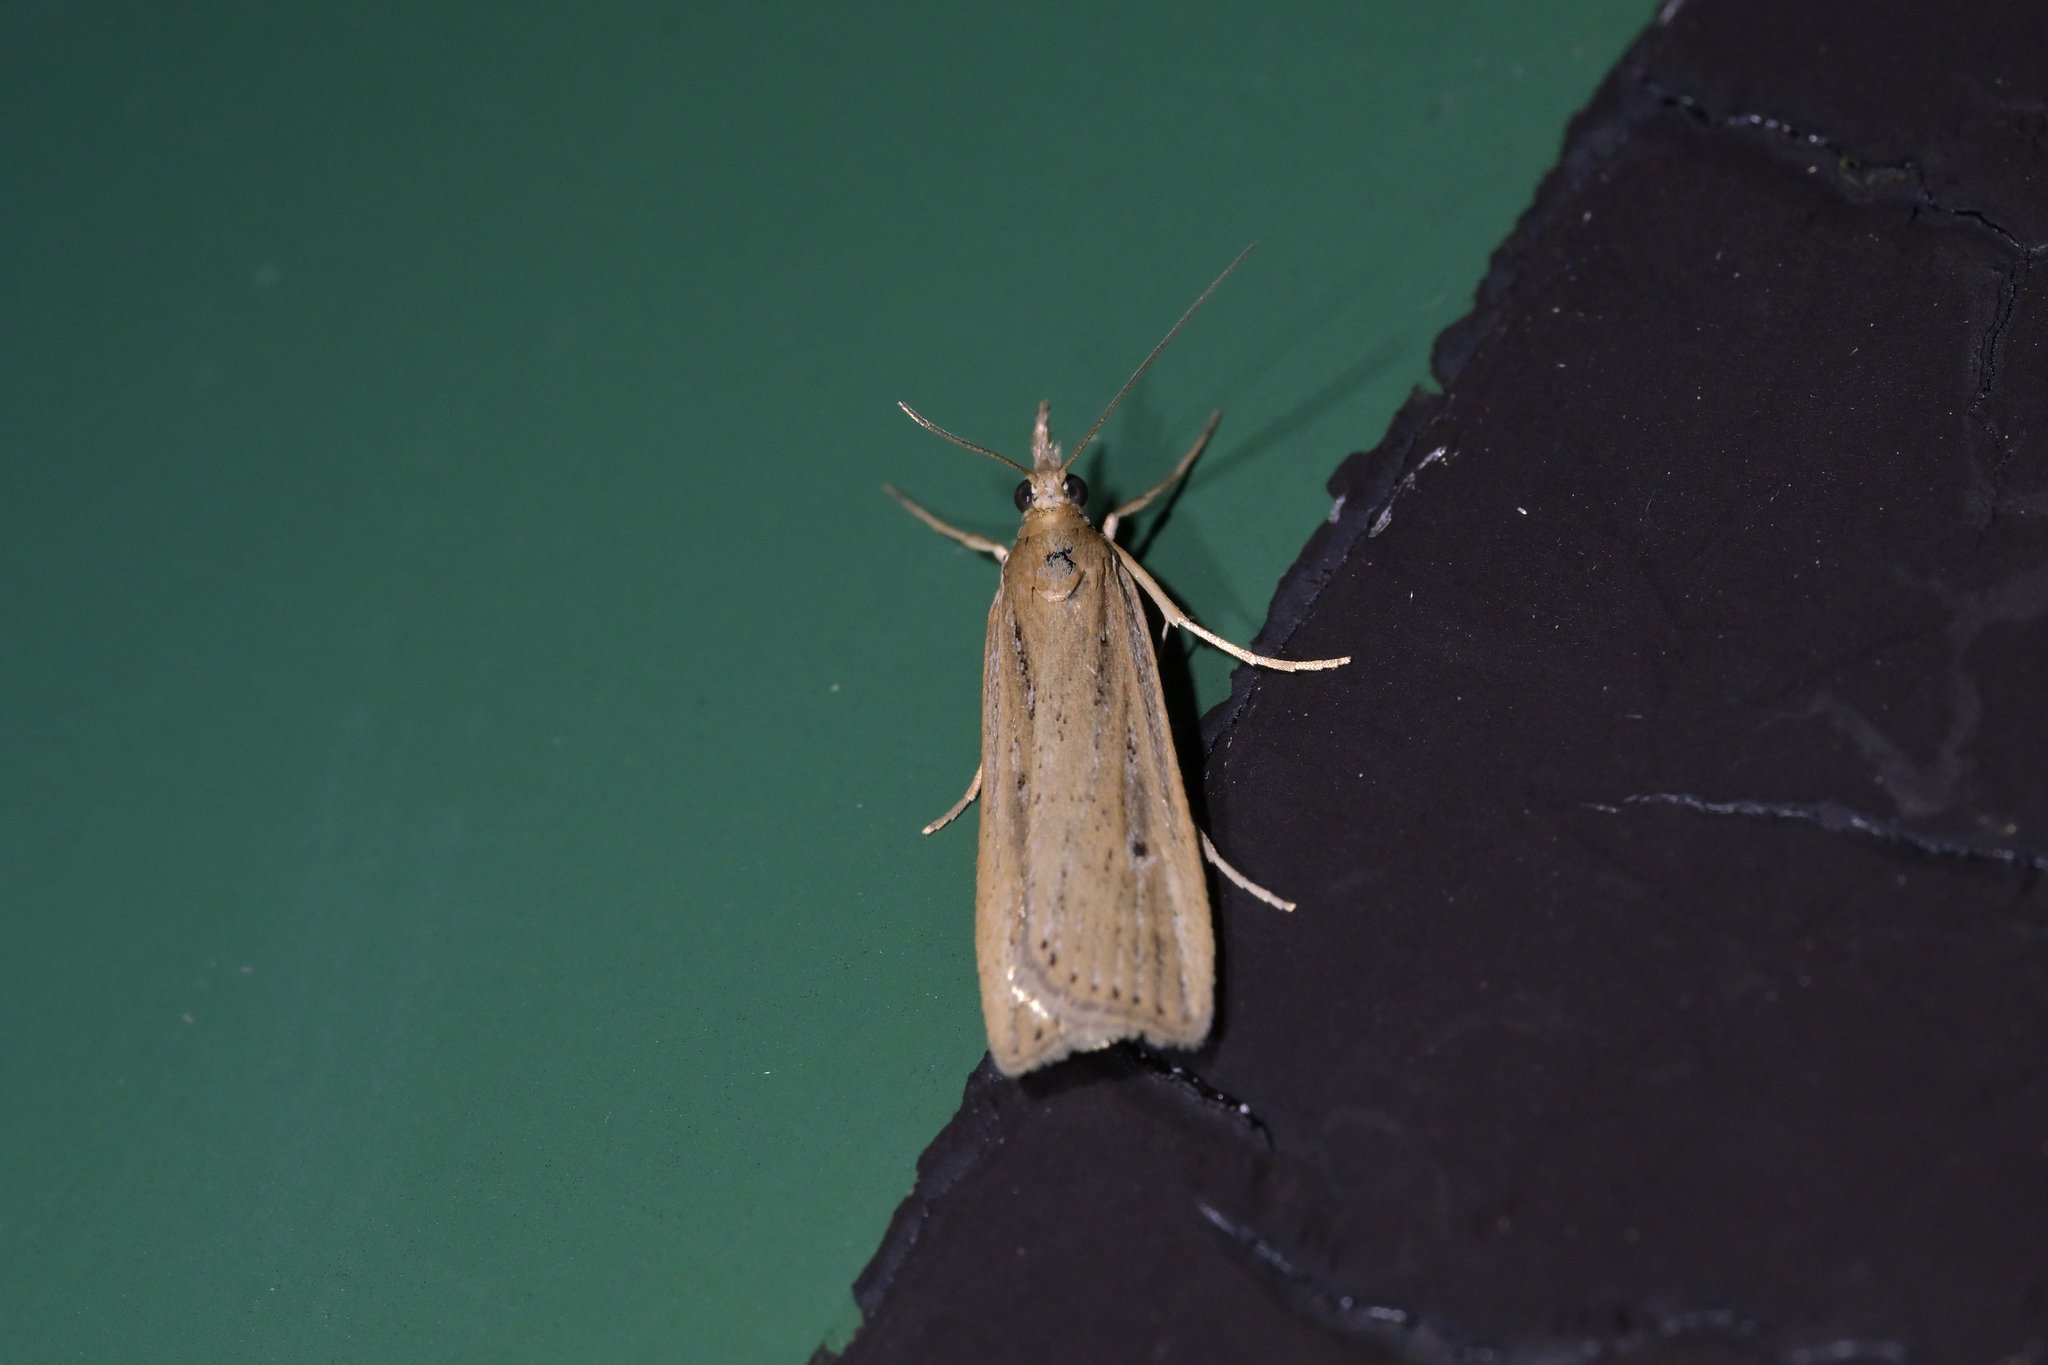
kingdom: Animalia
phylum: Arthropoda
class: Insecta
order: Lepidoptera
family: Crambidae
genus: Eudonia
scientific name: Eudonia sabulosella
